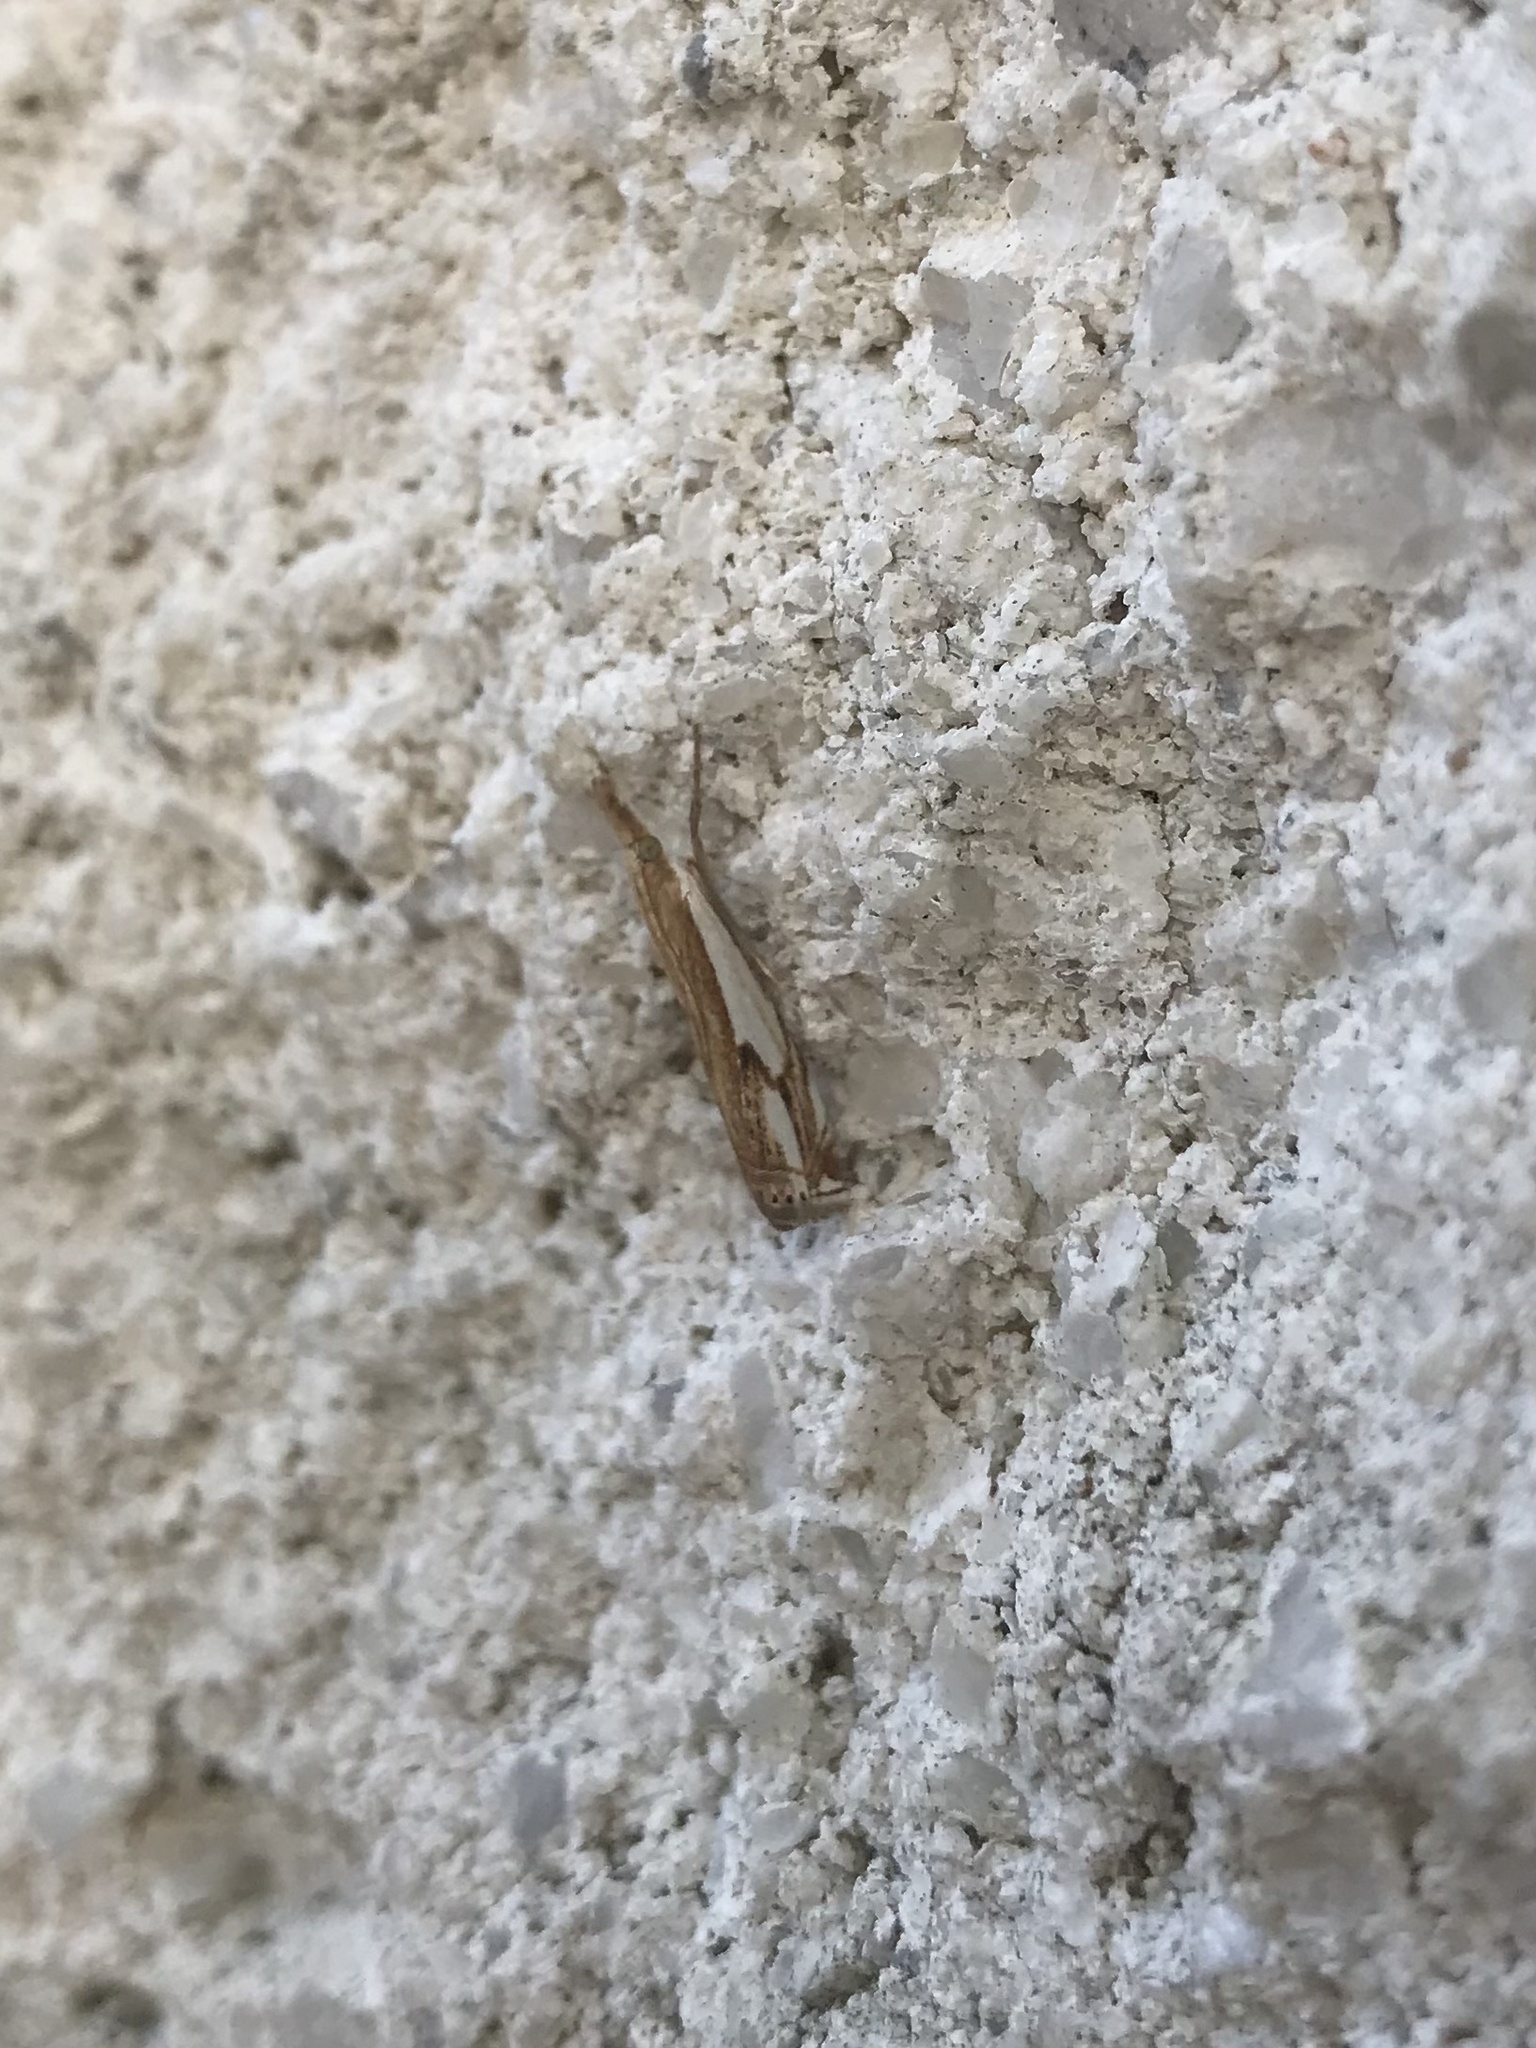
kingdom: Animalia
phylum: Arthropoda
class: Insecta
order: Lepidoptera
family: Crambidae
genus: Crambus
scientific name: Crambus agitatellus
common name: Double-banded grass-veneer
